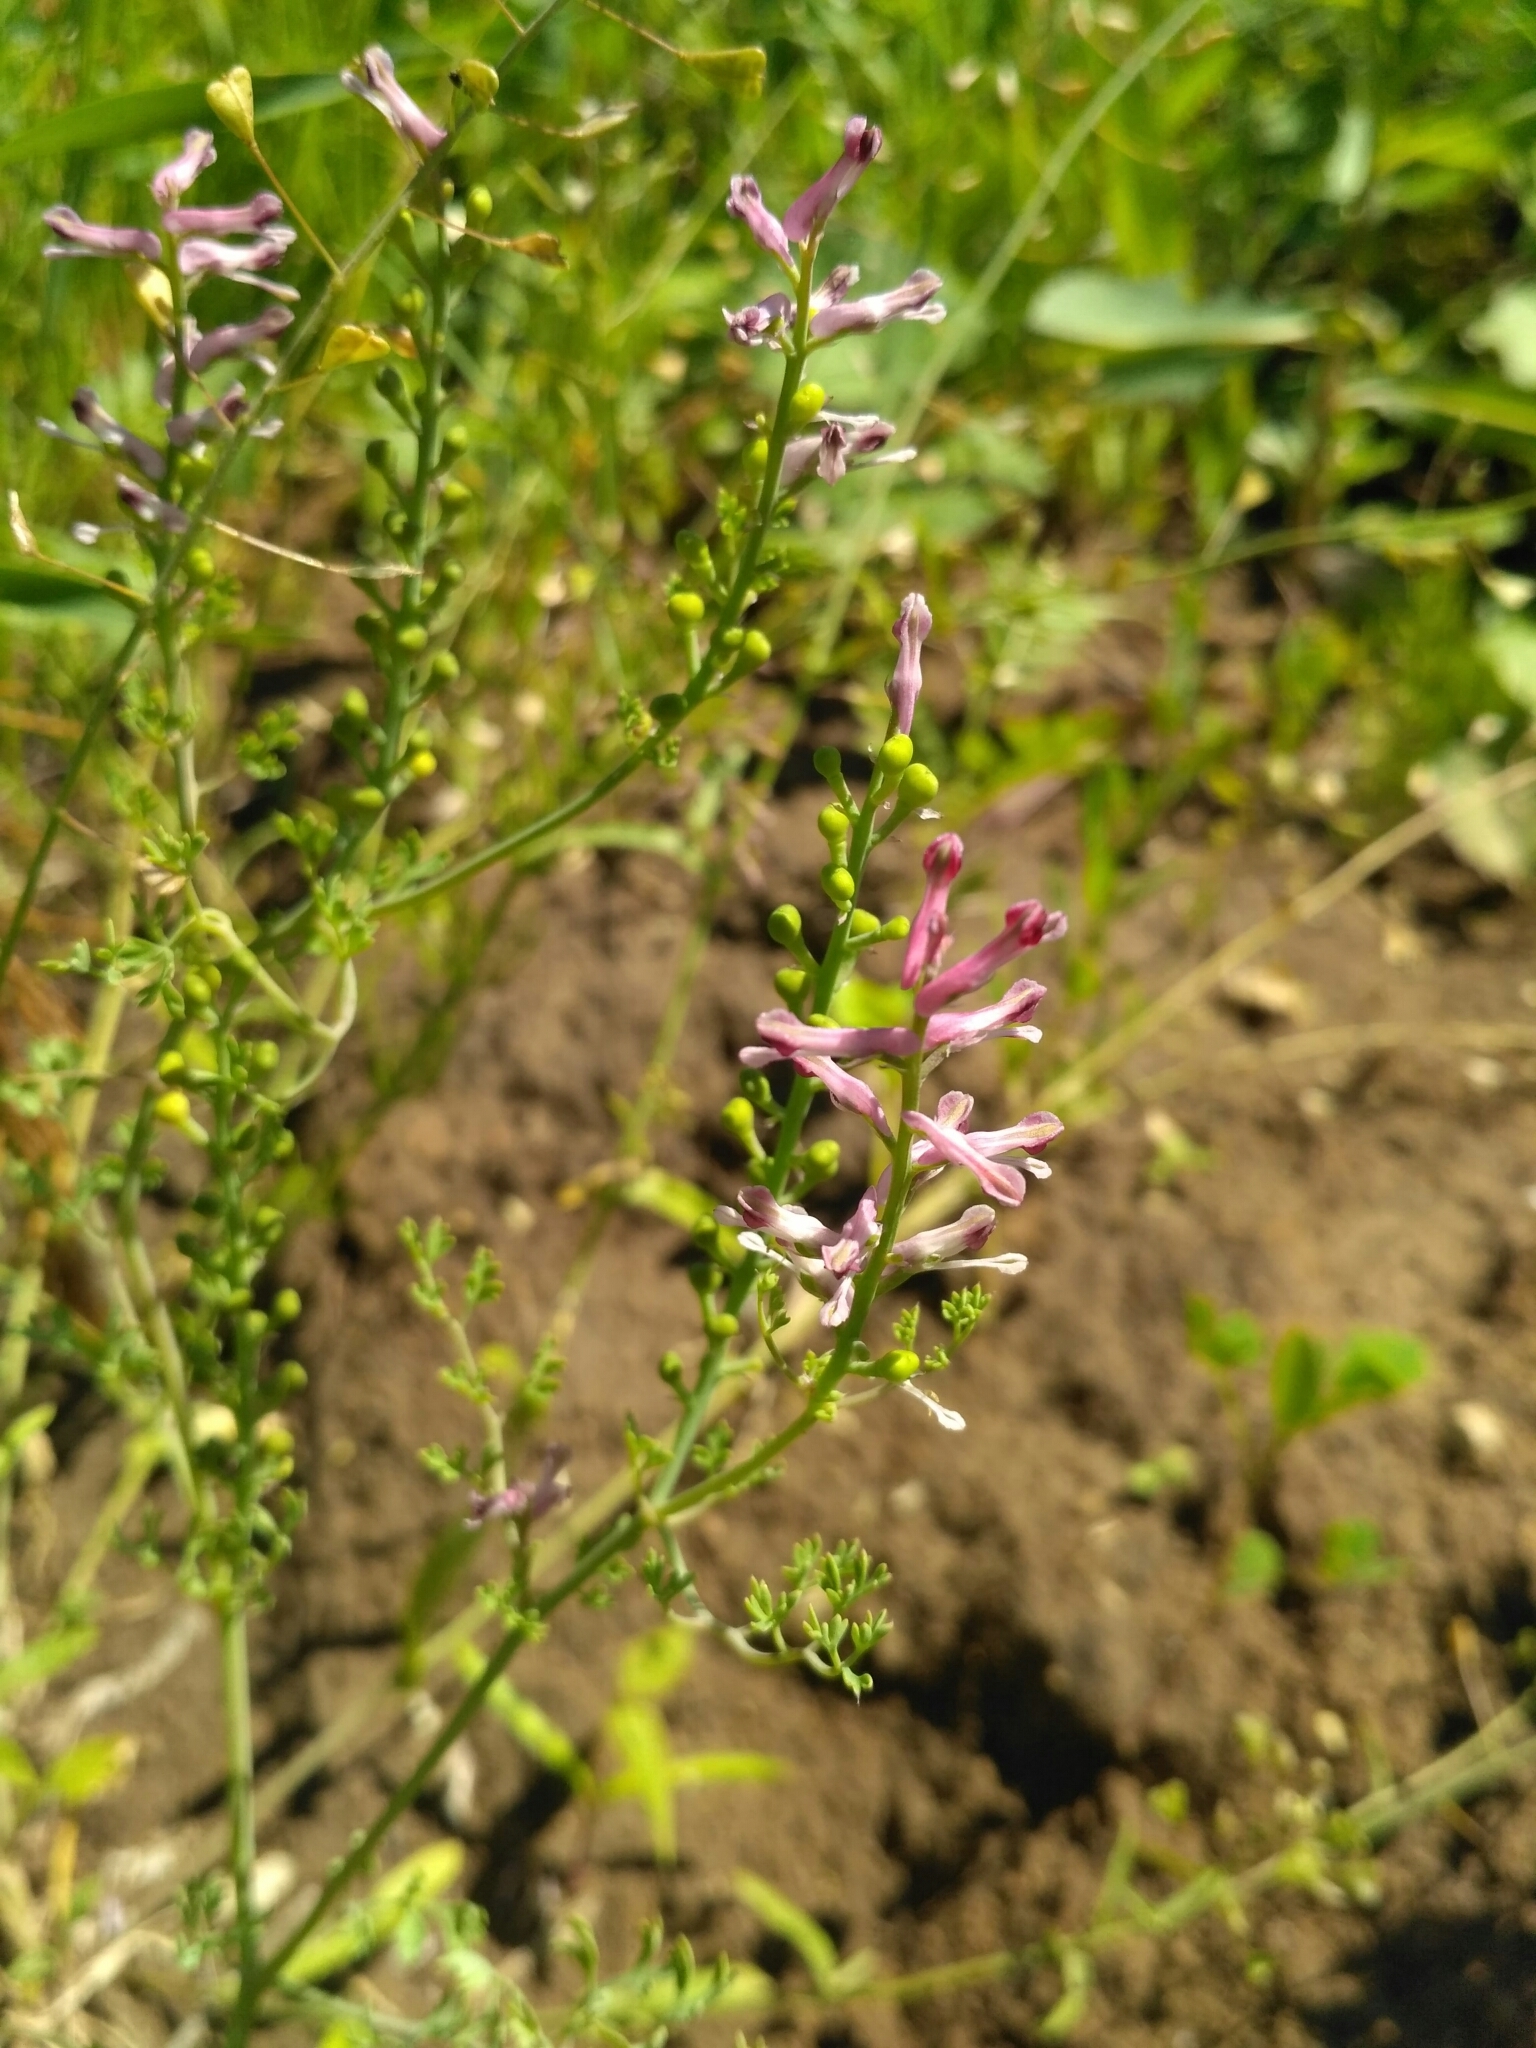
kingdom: Plantae
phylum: Tracheophyta
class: Magnoliopsida
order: Ranunculales
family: Papaveraceae
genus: Fumaria
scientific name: Fumaria officinalis
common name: Common fumitory
